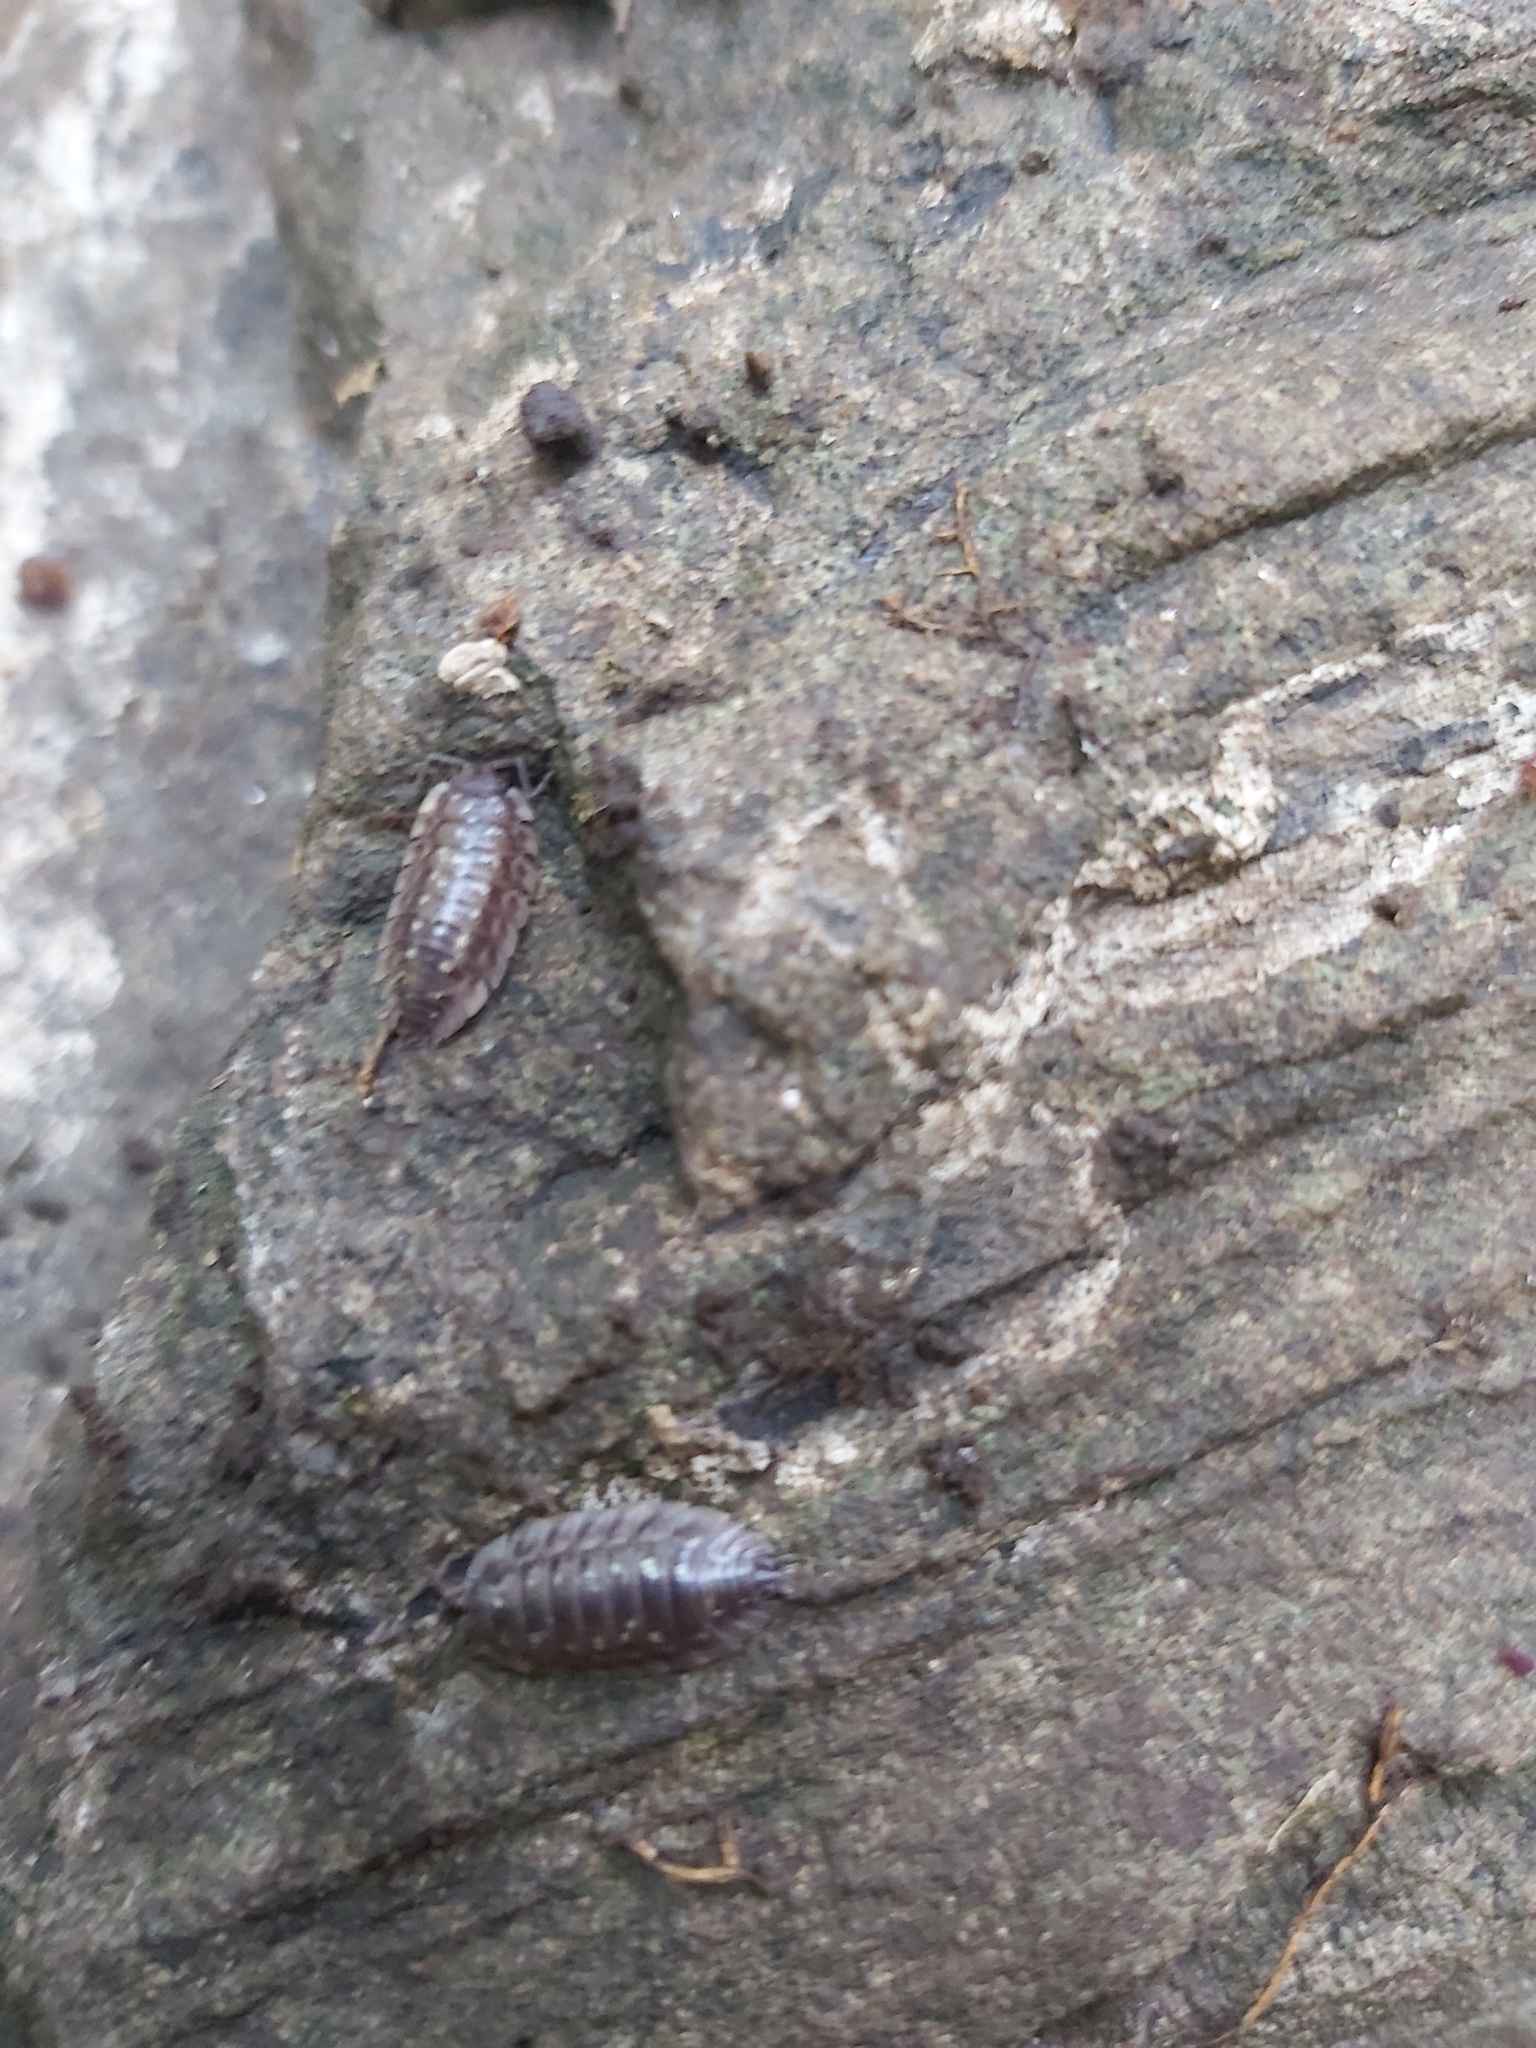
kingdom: Animalia
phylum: Arthropoda
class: Malacostraca
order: Isopoda
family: Oniscidae
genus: Oniscus
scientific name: Oniscus asellus
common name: Common shiny woodlouse
